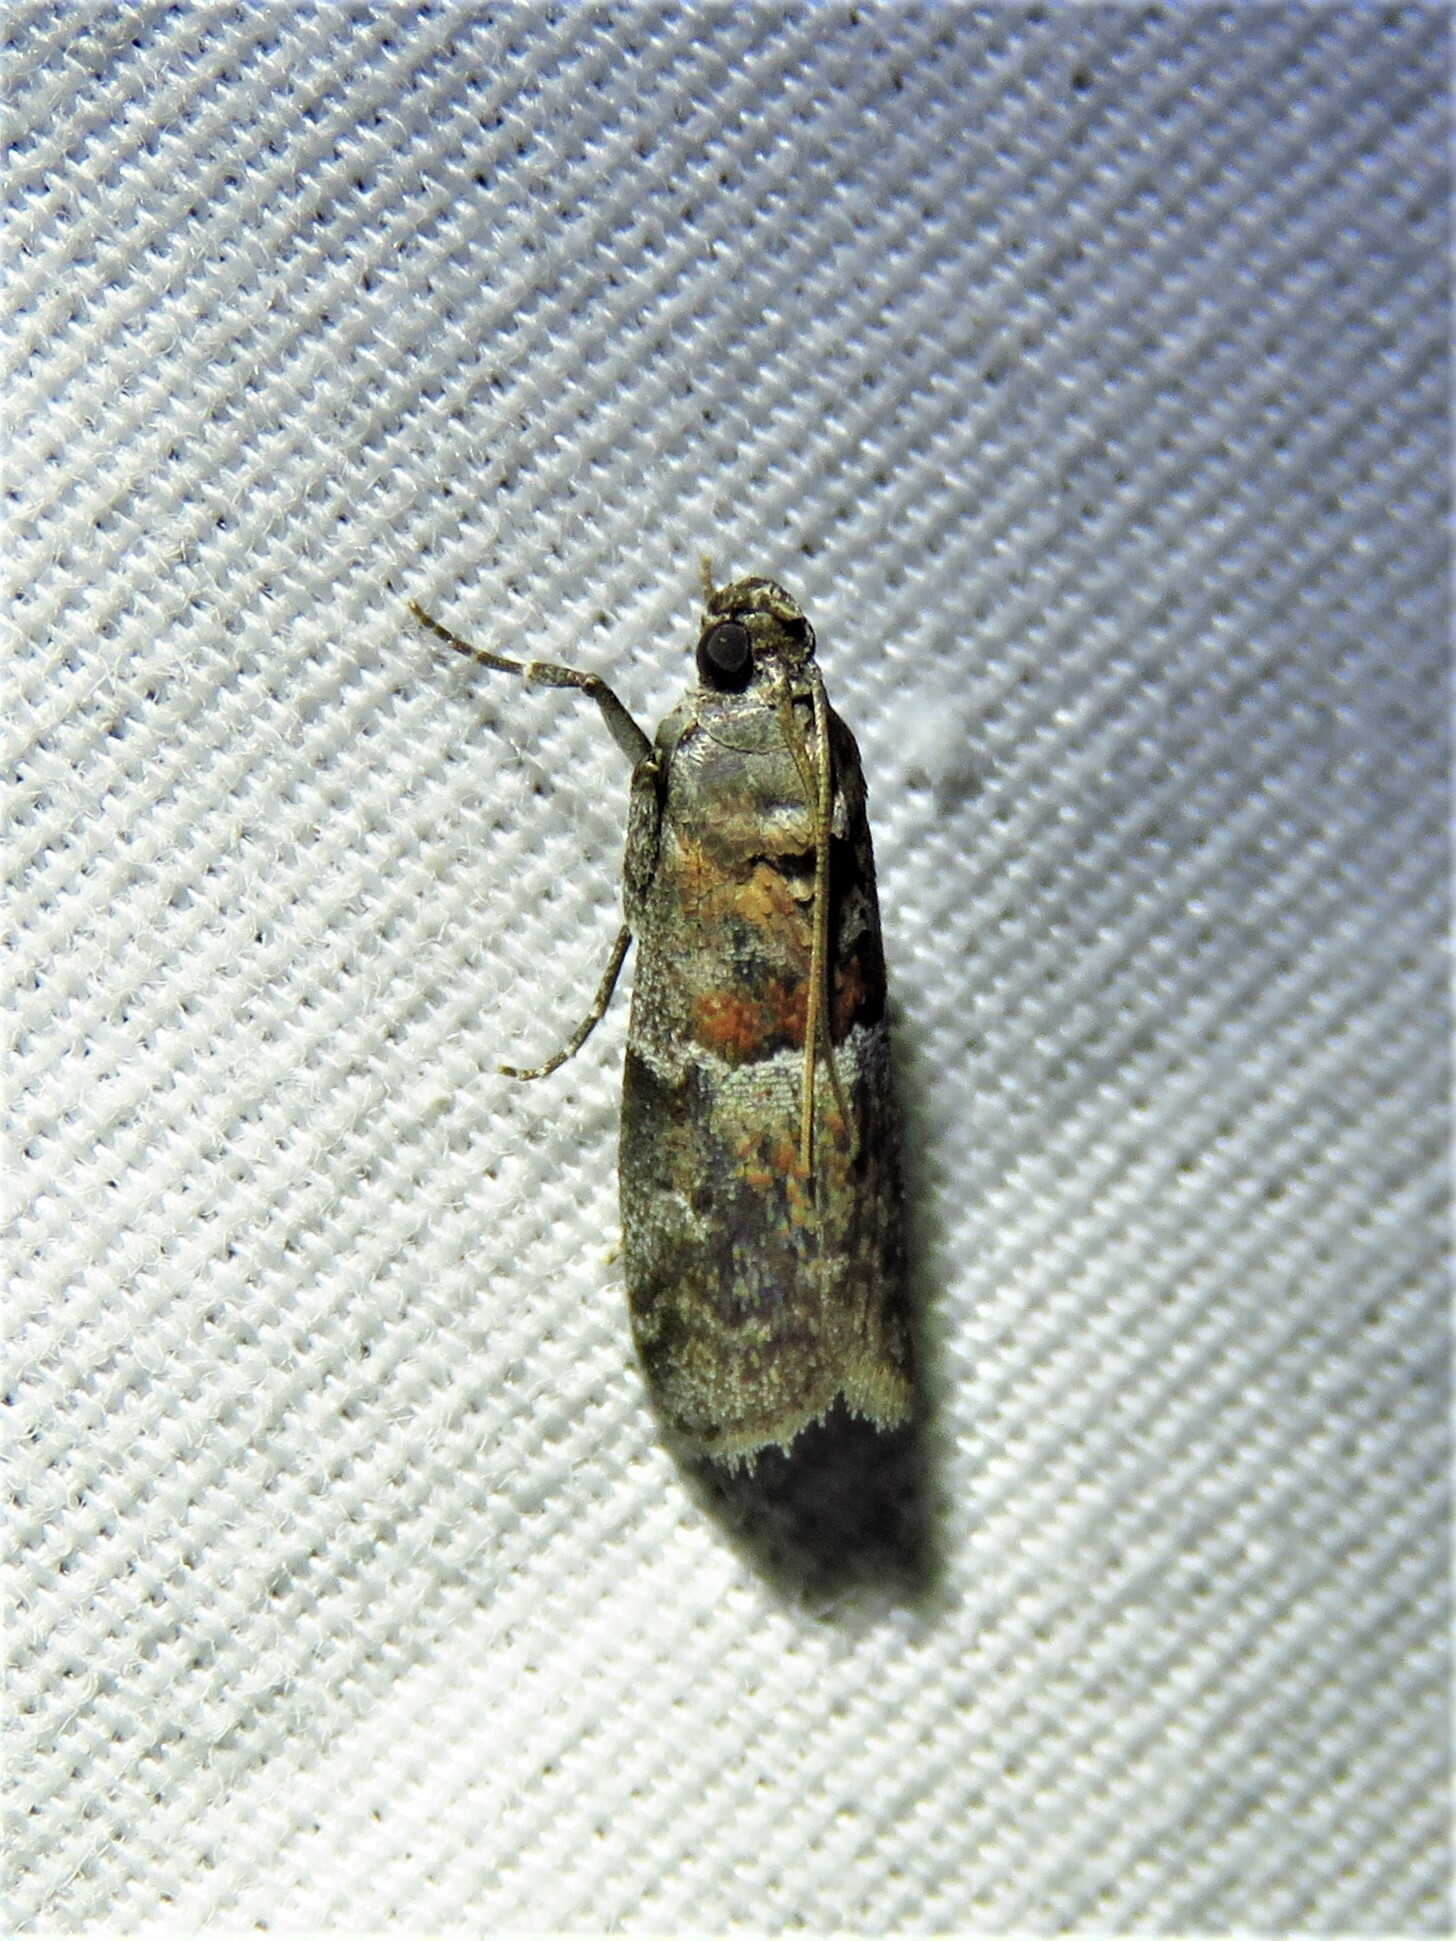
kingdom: Animalia
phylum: Arthropoda
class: Insecta
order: Lepidoptera
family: Pyralidae
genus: Salebriaria
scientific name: Salebriaria pumilella
